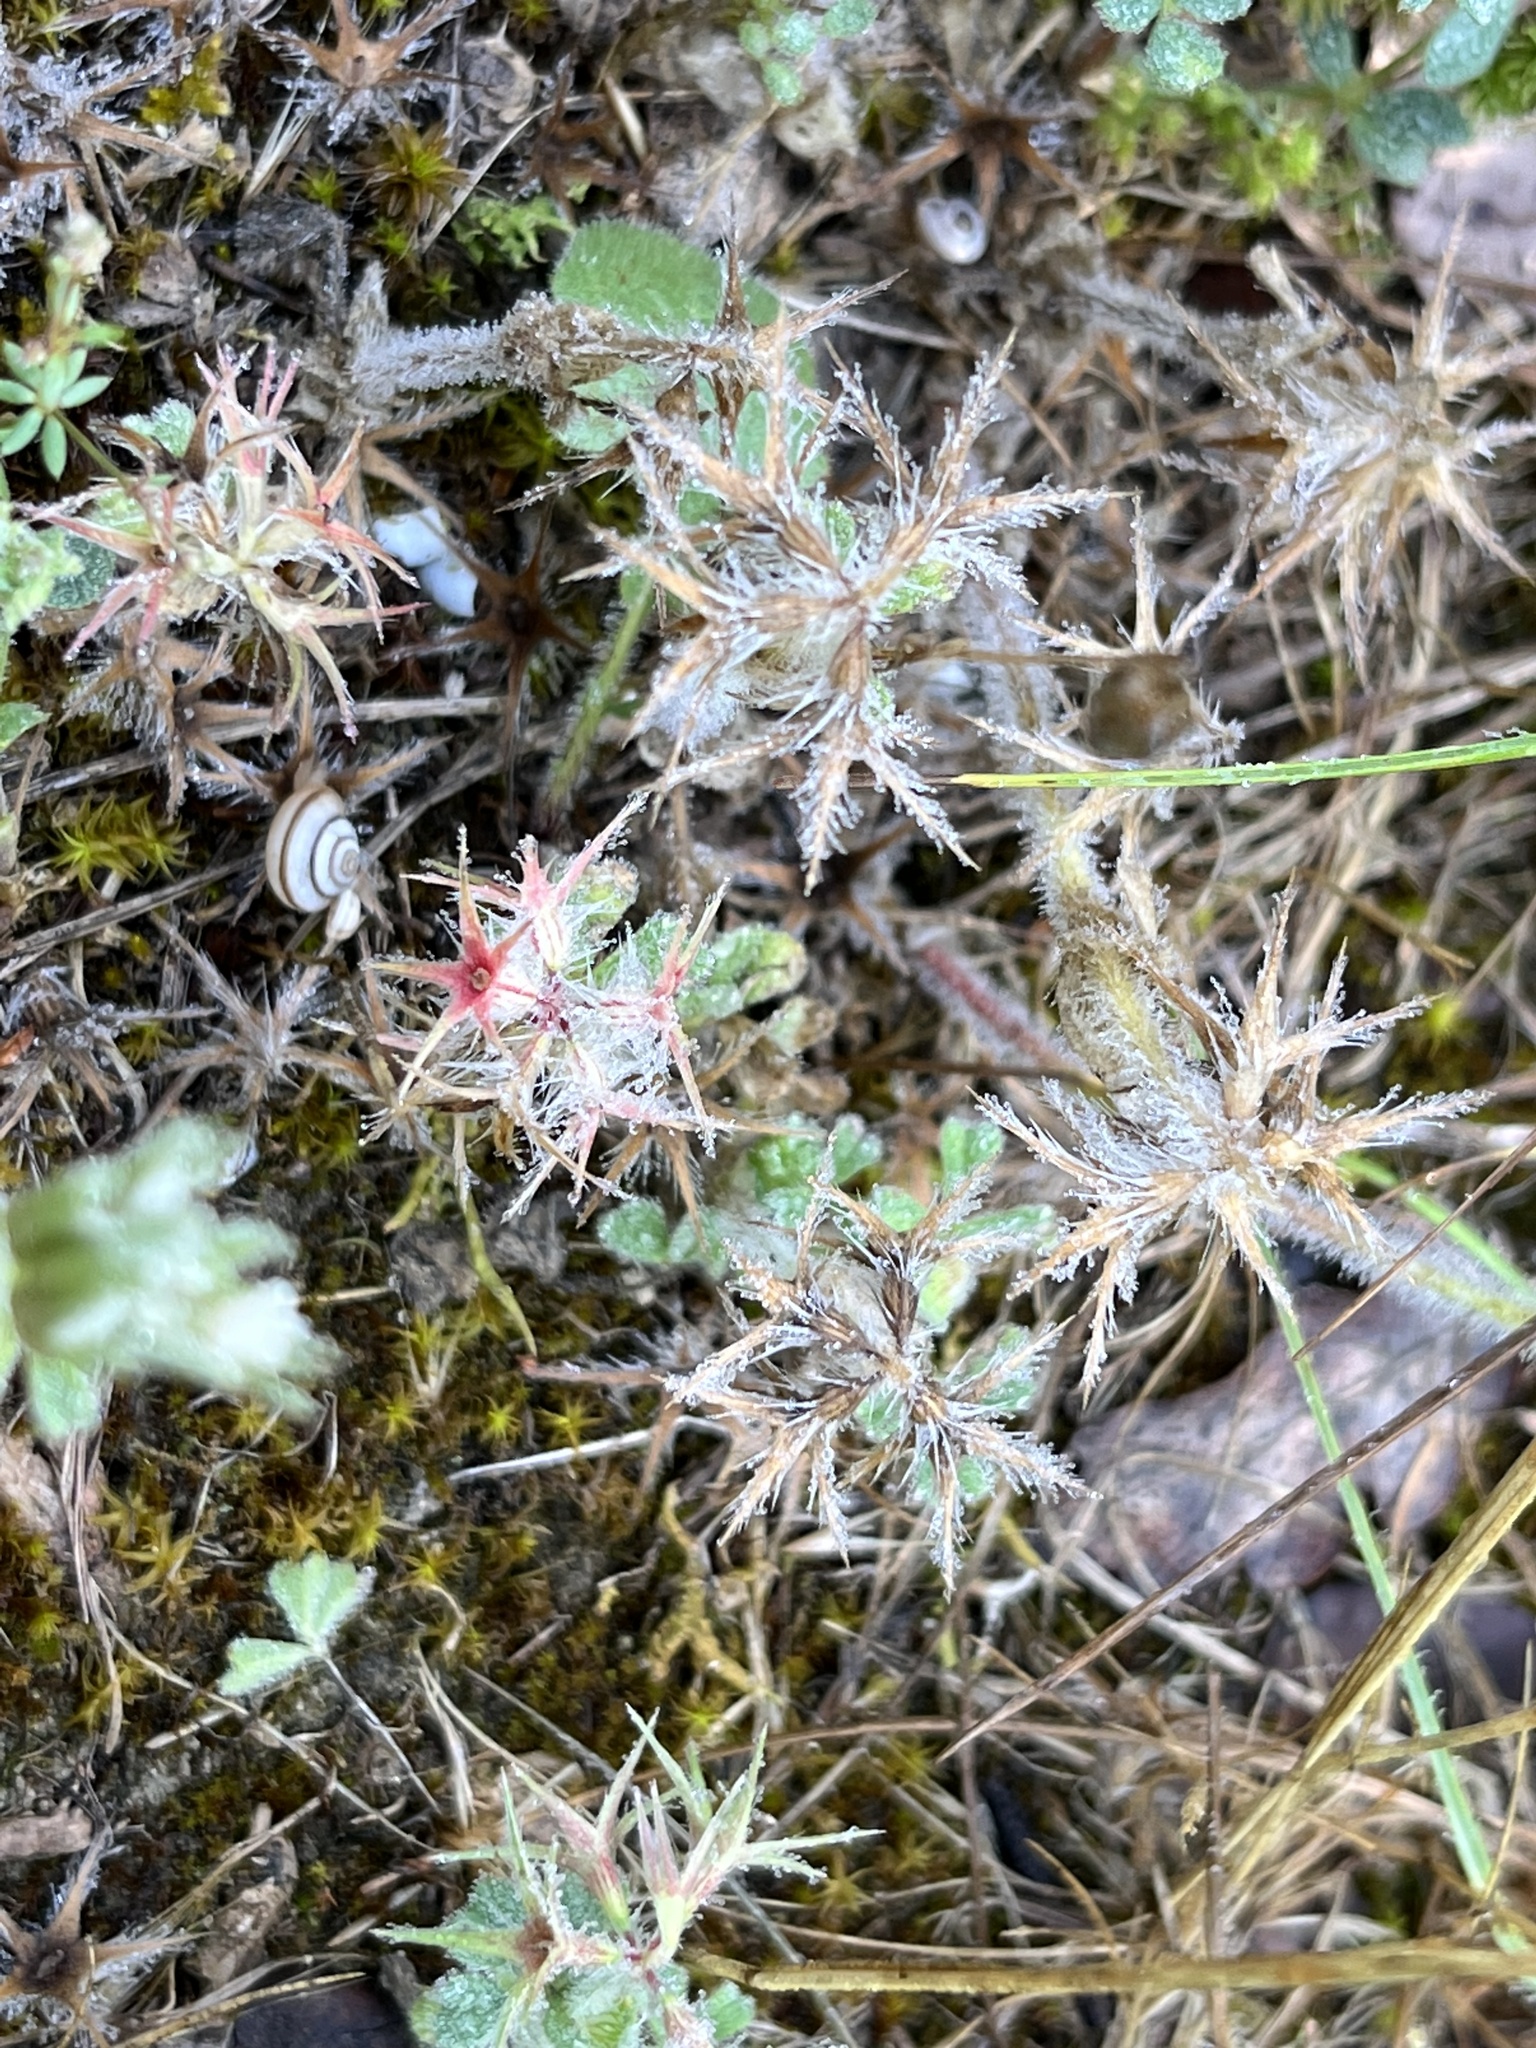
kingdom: Plantae
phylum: Tracheophyta
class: Magnoliopsida
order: Fabales
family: Fabaceae
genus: Trifolium
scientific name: Trifolium stellatum
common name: Starry clover
